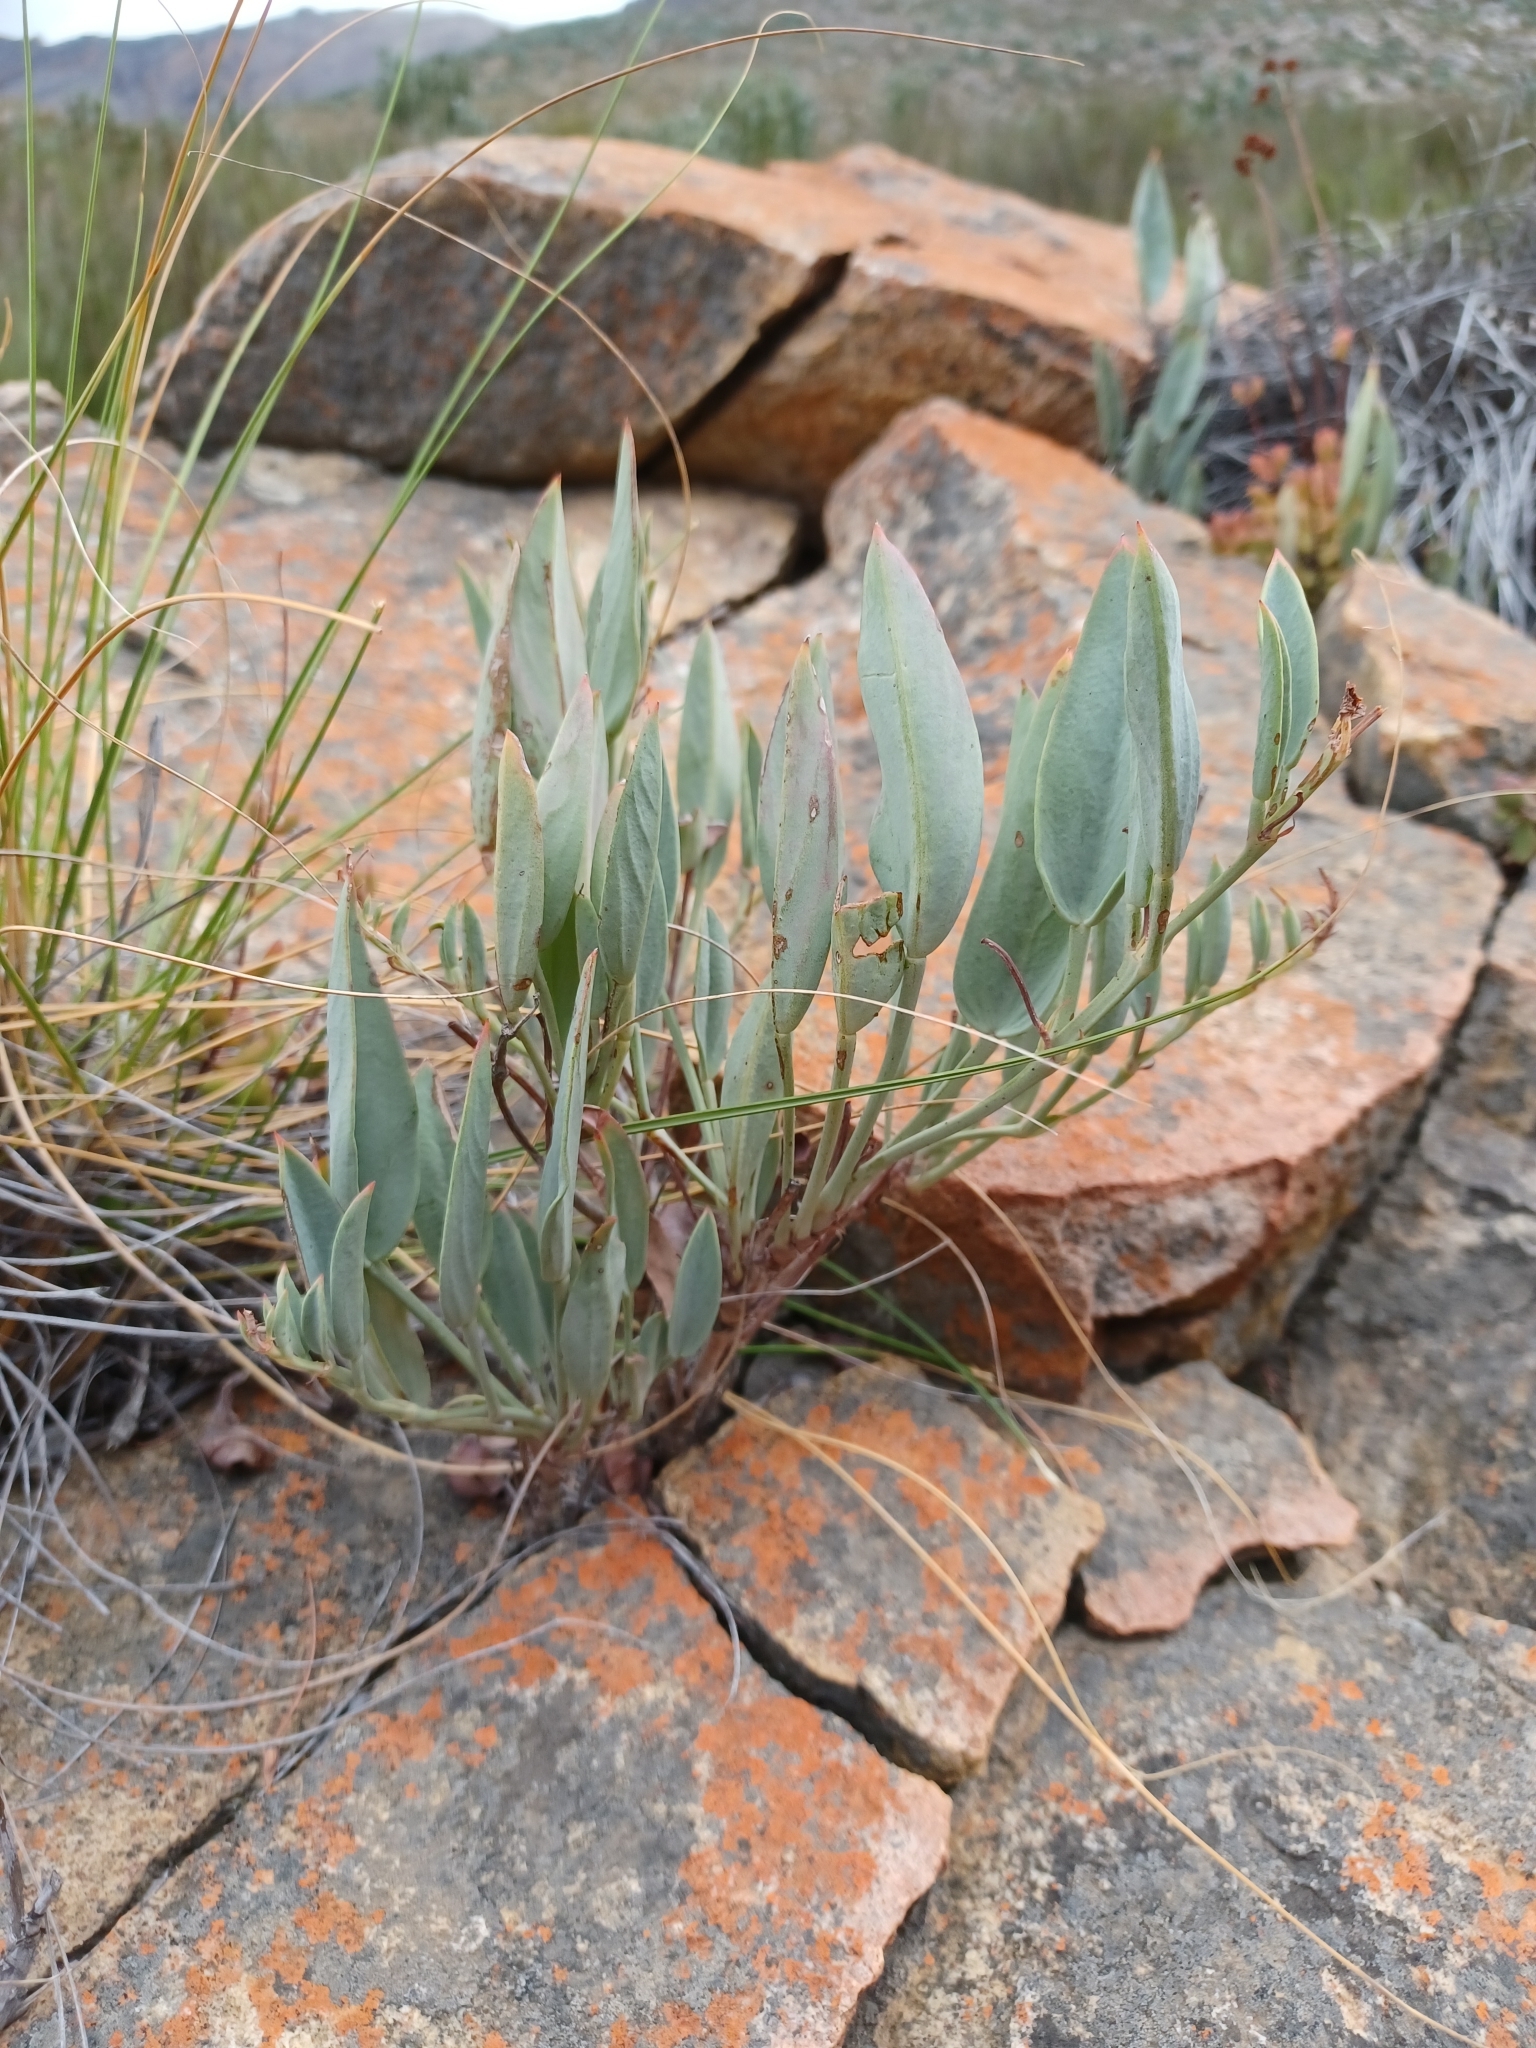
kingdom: Plantae
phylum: Tracheophyta
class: Magnoliopsida
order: Geraniales
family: Geraniaceae
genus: Pelargonium
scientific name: Pelargonium lanceolatum
